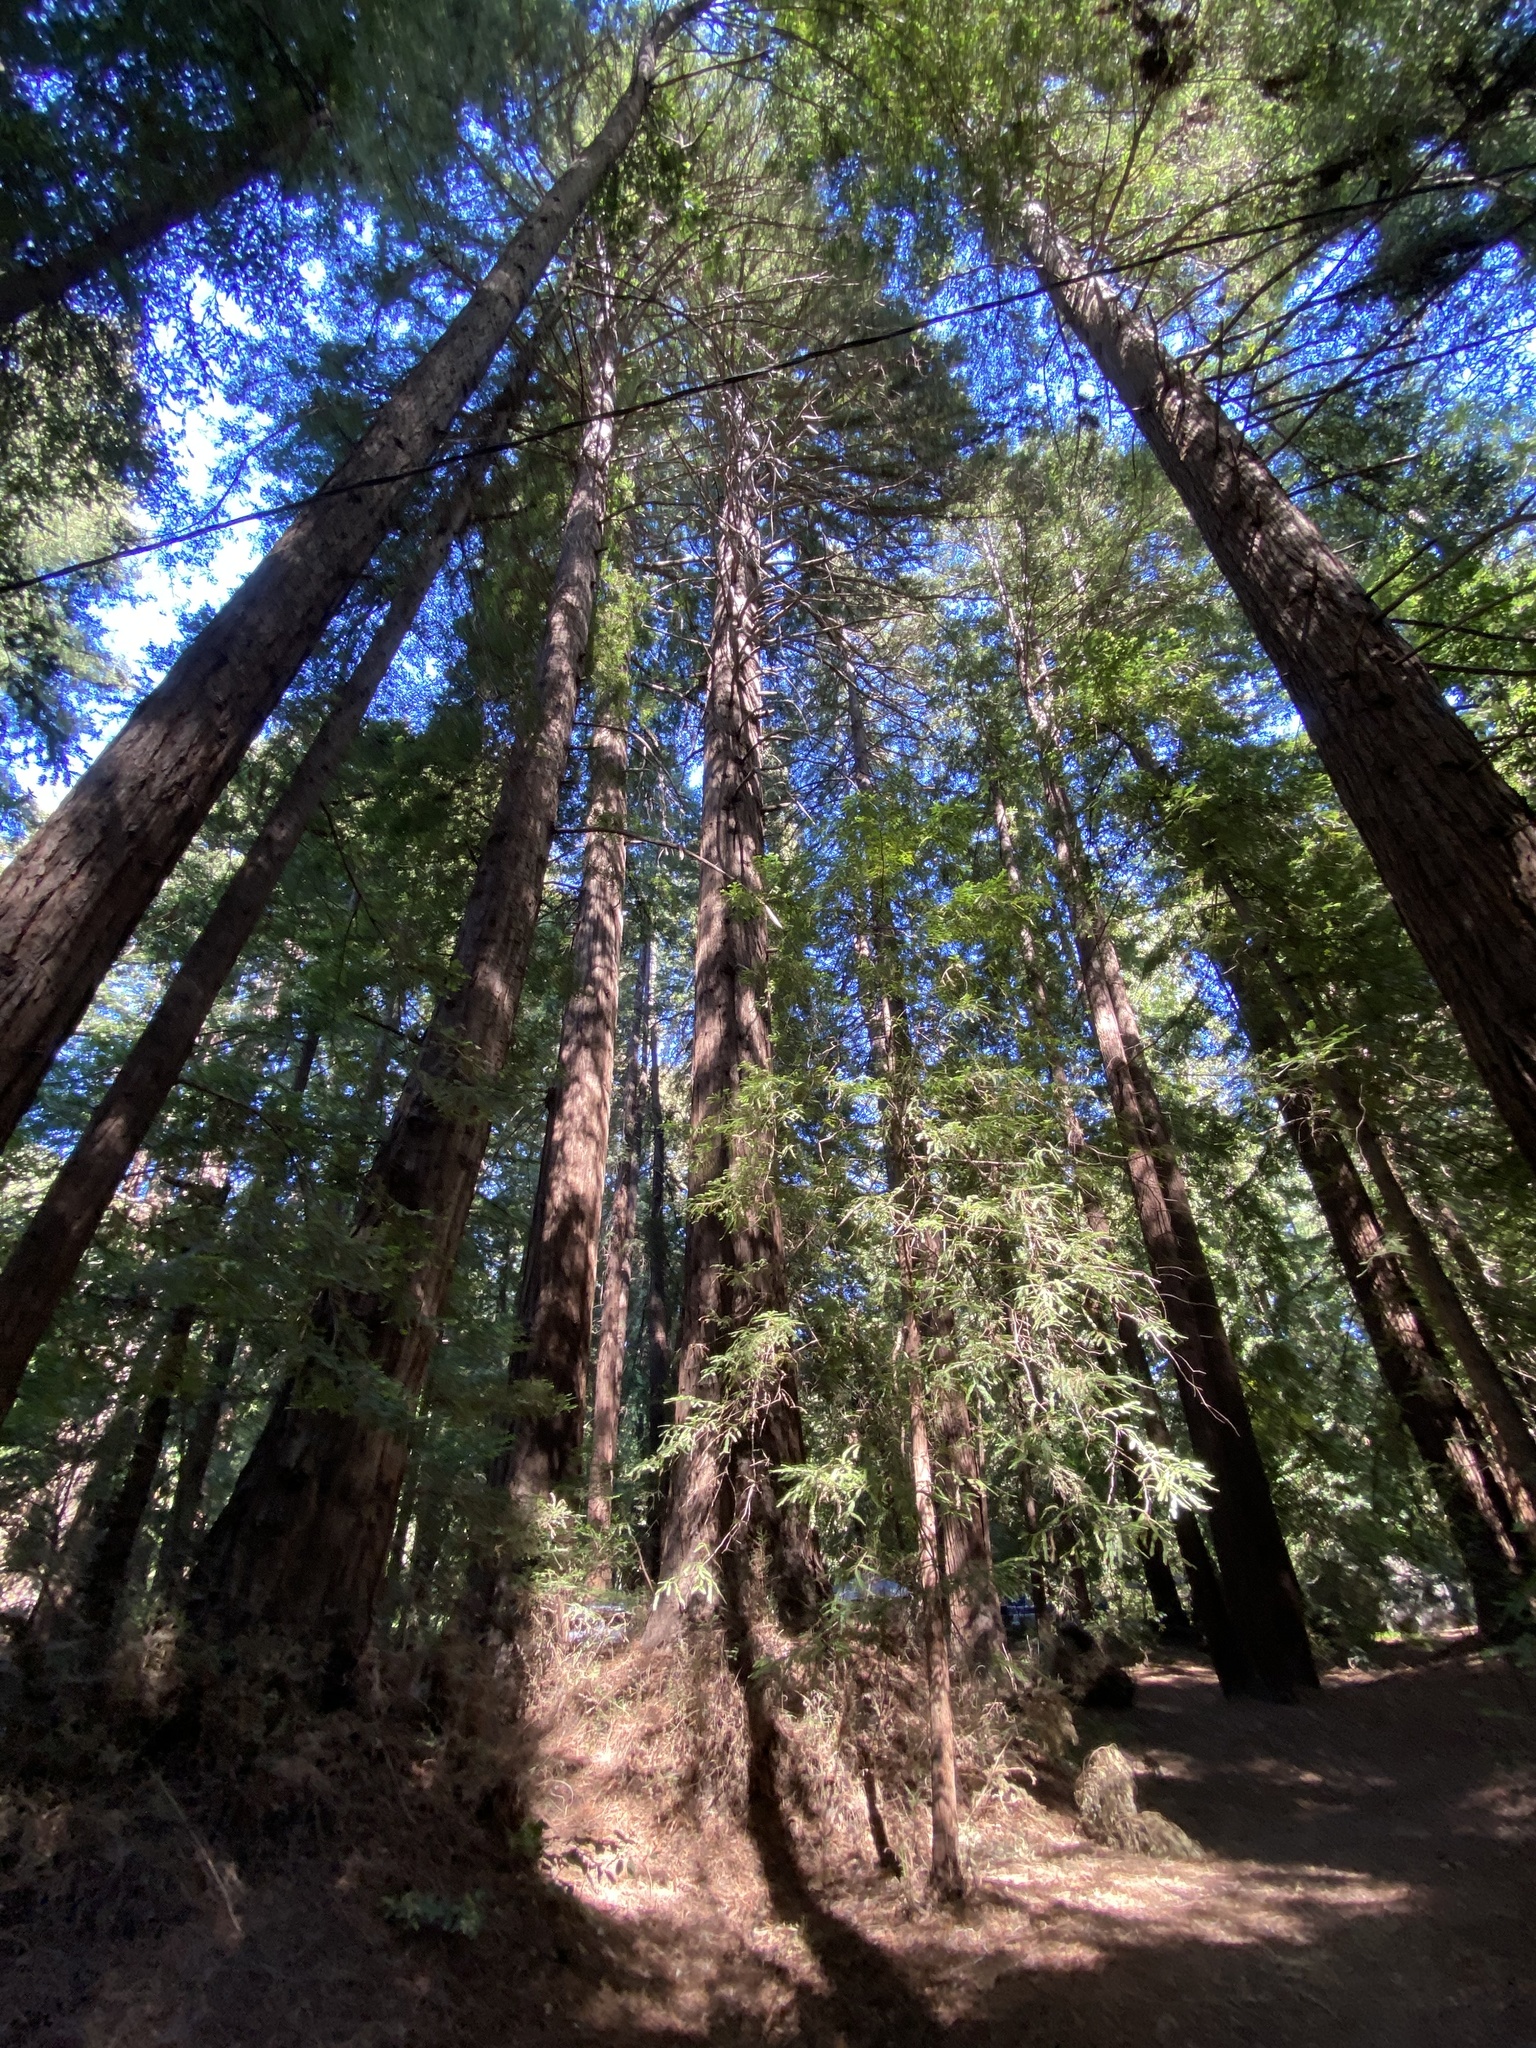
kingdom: Plantae
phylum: Tracheophyta
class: Pinopsida
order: Pinales
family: Cupressaceae
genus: Sequoia
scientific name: Sequoia sempervirens
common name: Coast redwood
